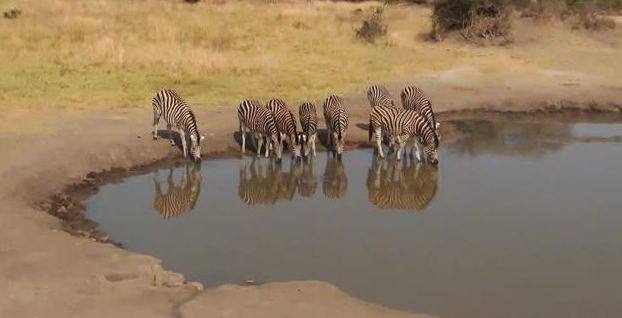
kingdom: Animalia
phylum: Chordata
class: Mammalia
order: Perissodactyla
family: Equidae
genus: Equus
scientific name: Equus quagga
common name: Plains zebra
